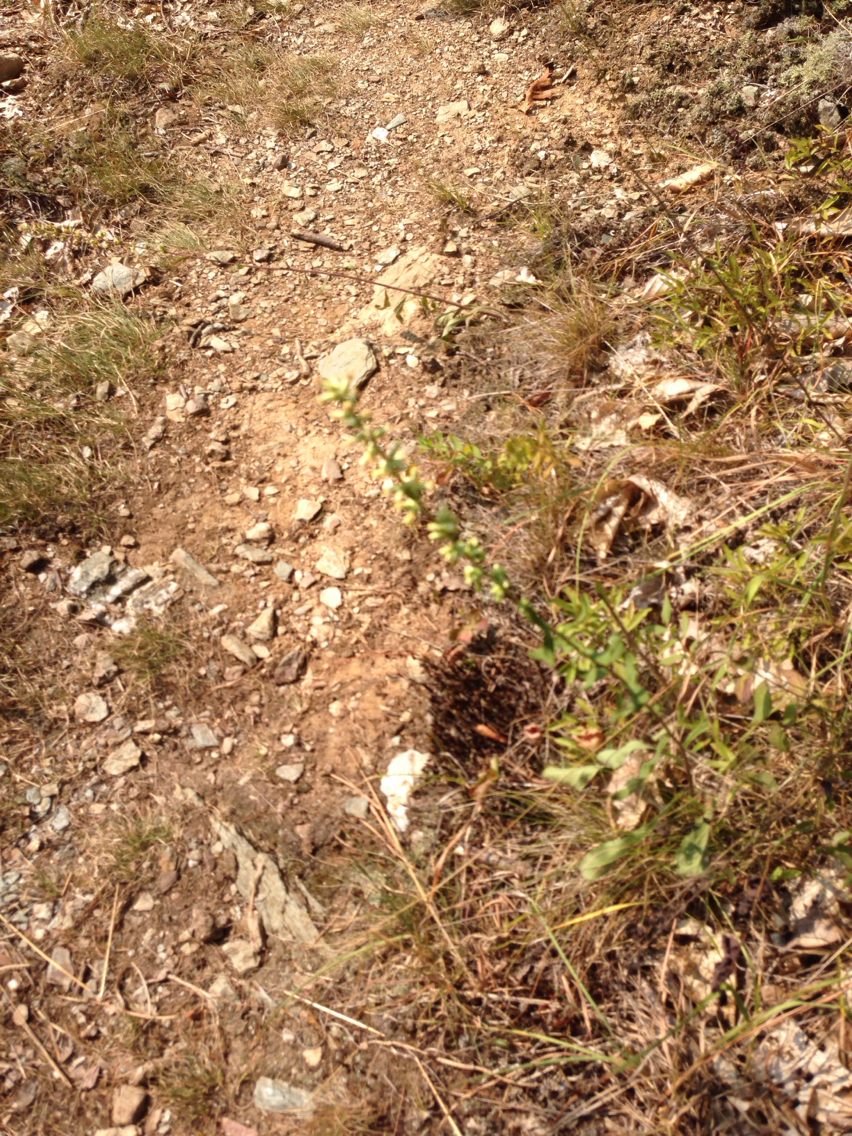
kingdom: Plantae
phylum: Tracheophyta
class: Magnoliopsida
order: Asterales
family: Asteraceae
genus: Solidago
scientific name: Solidago bicolor
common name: Silverrod
